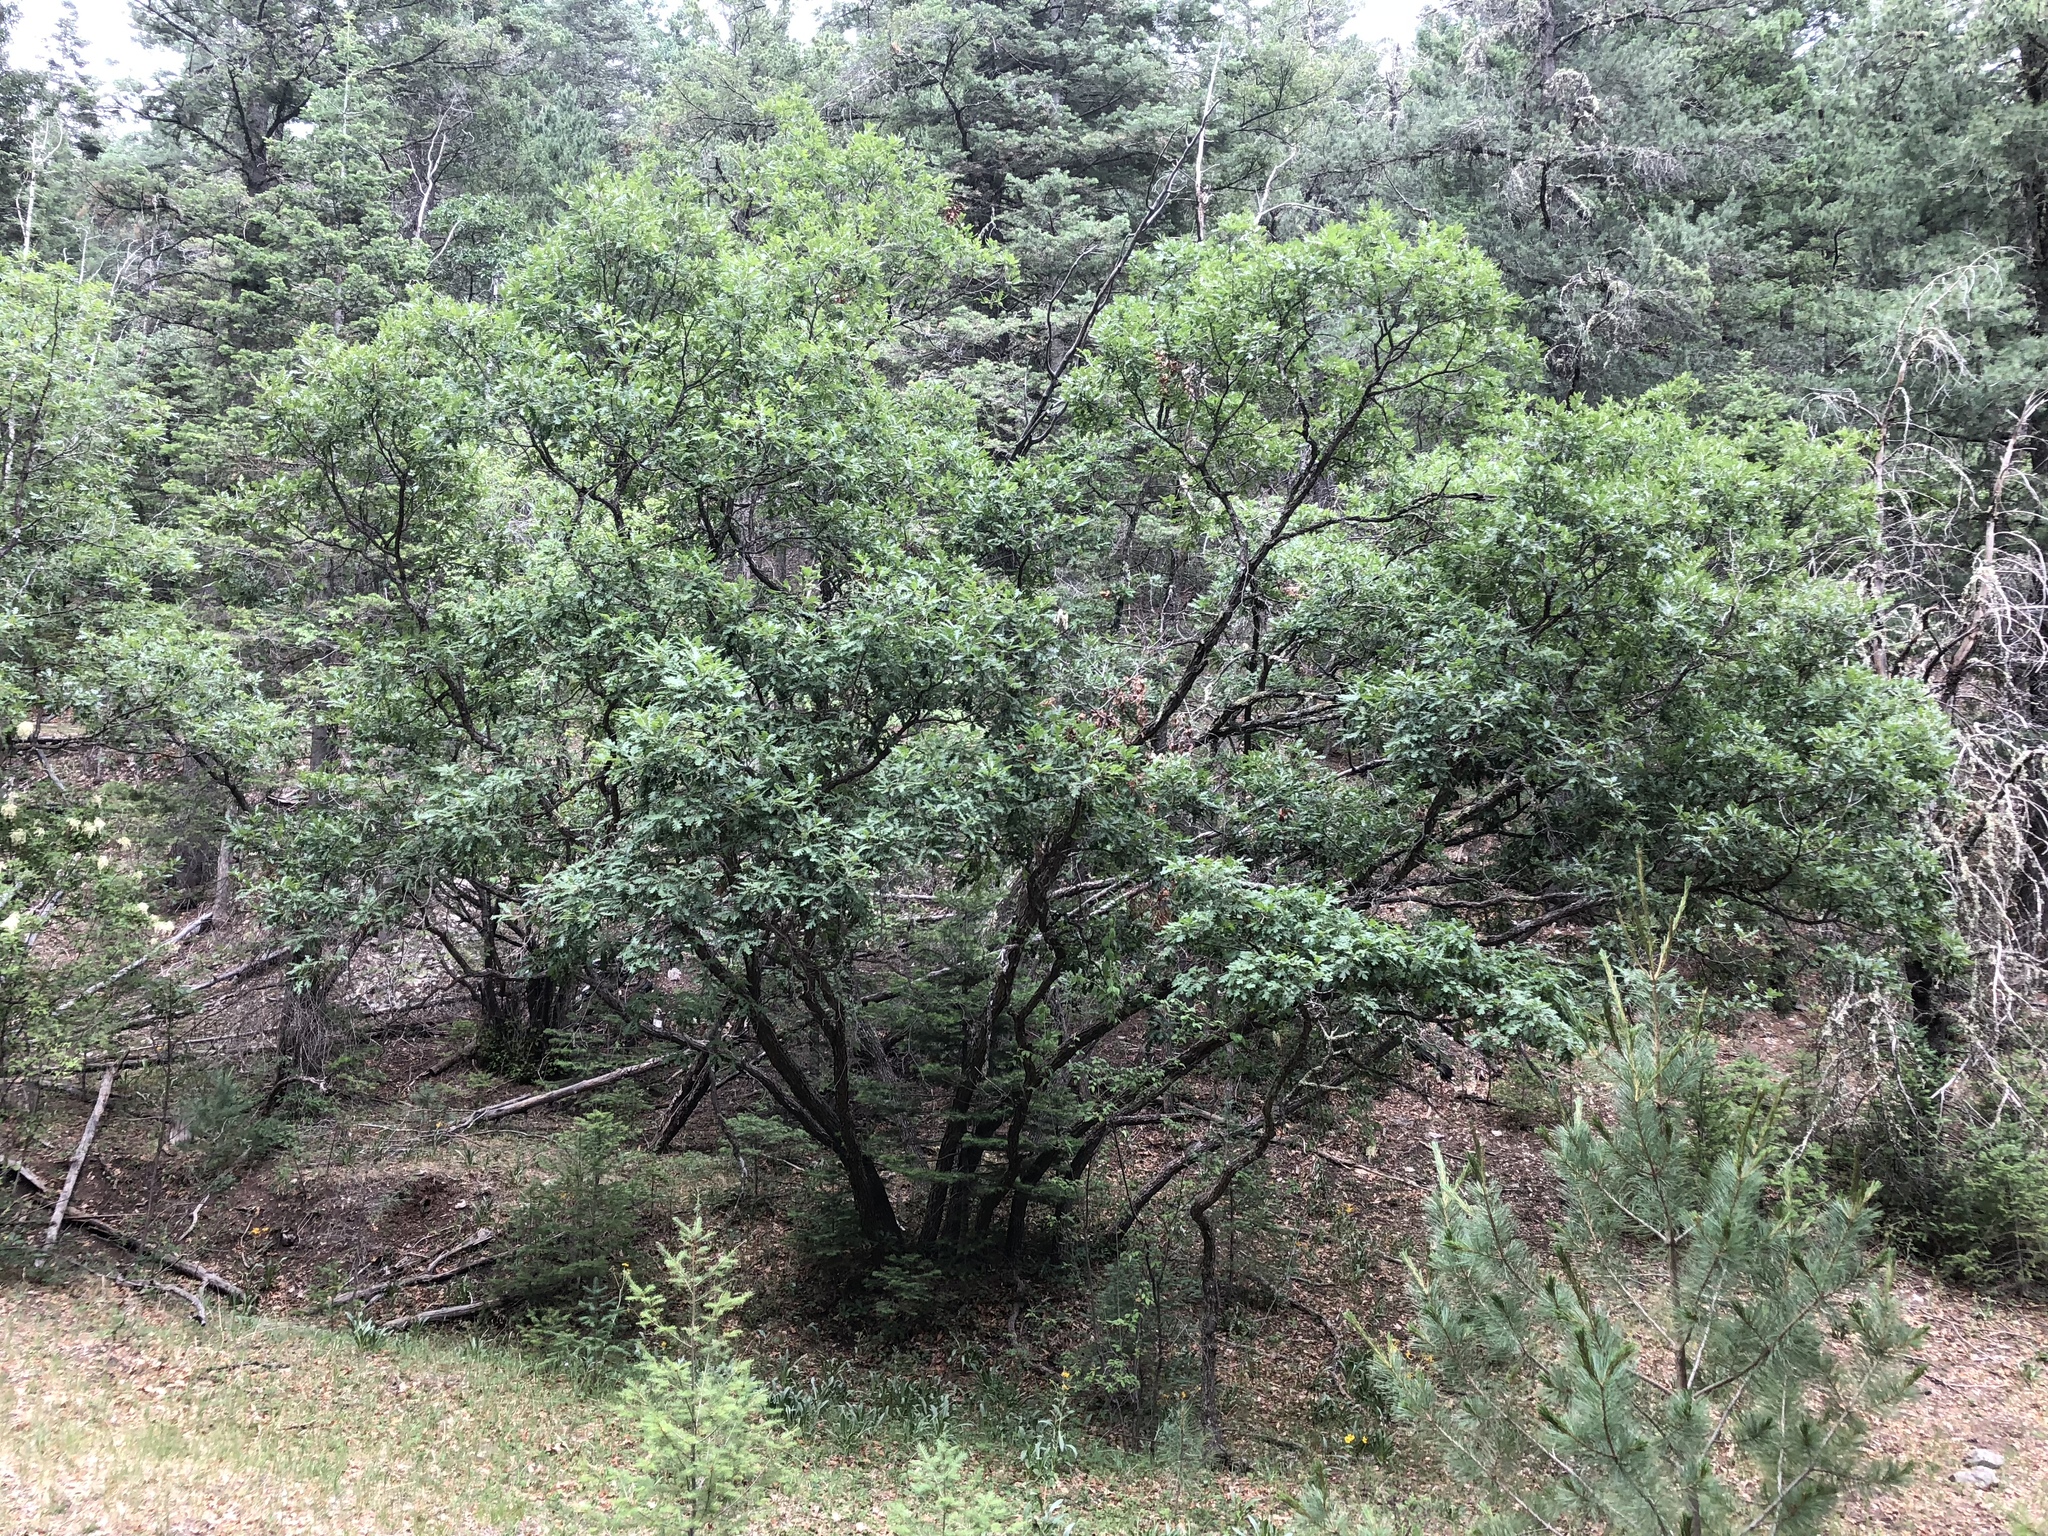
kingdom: Plantae
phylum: Tracheophyta
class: Magnoliopsida
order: Fagales
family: Fagaceae
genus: Quercus
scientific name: Quercus gambelii
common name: Gambel oak
